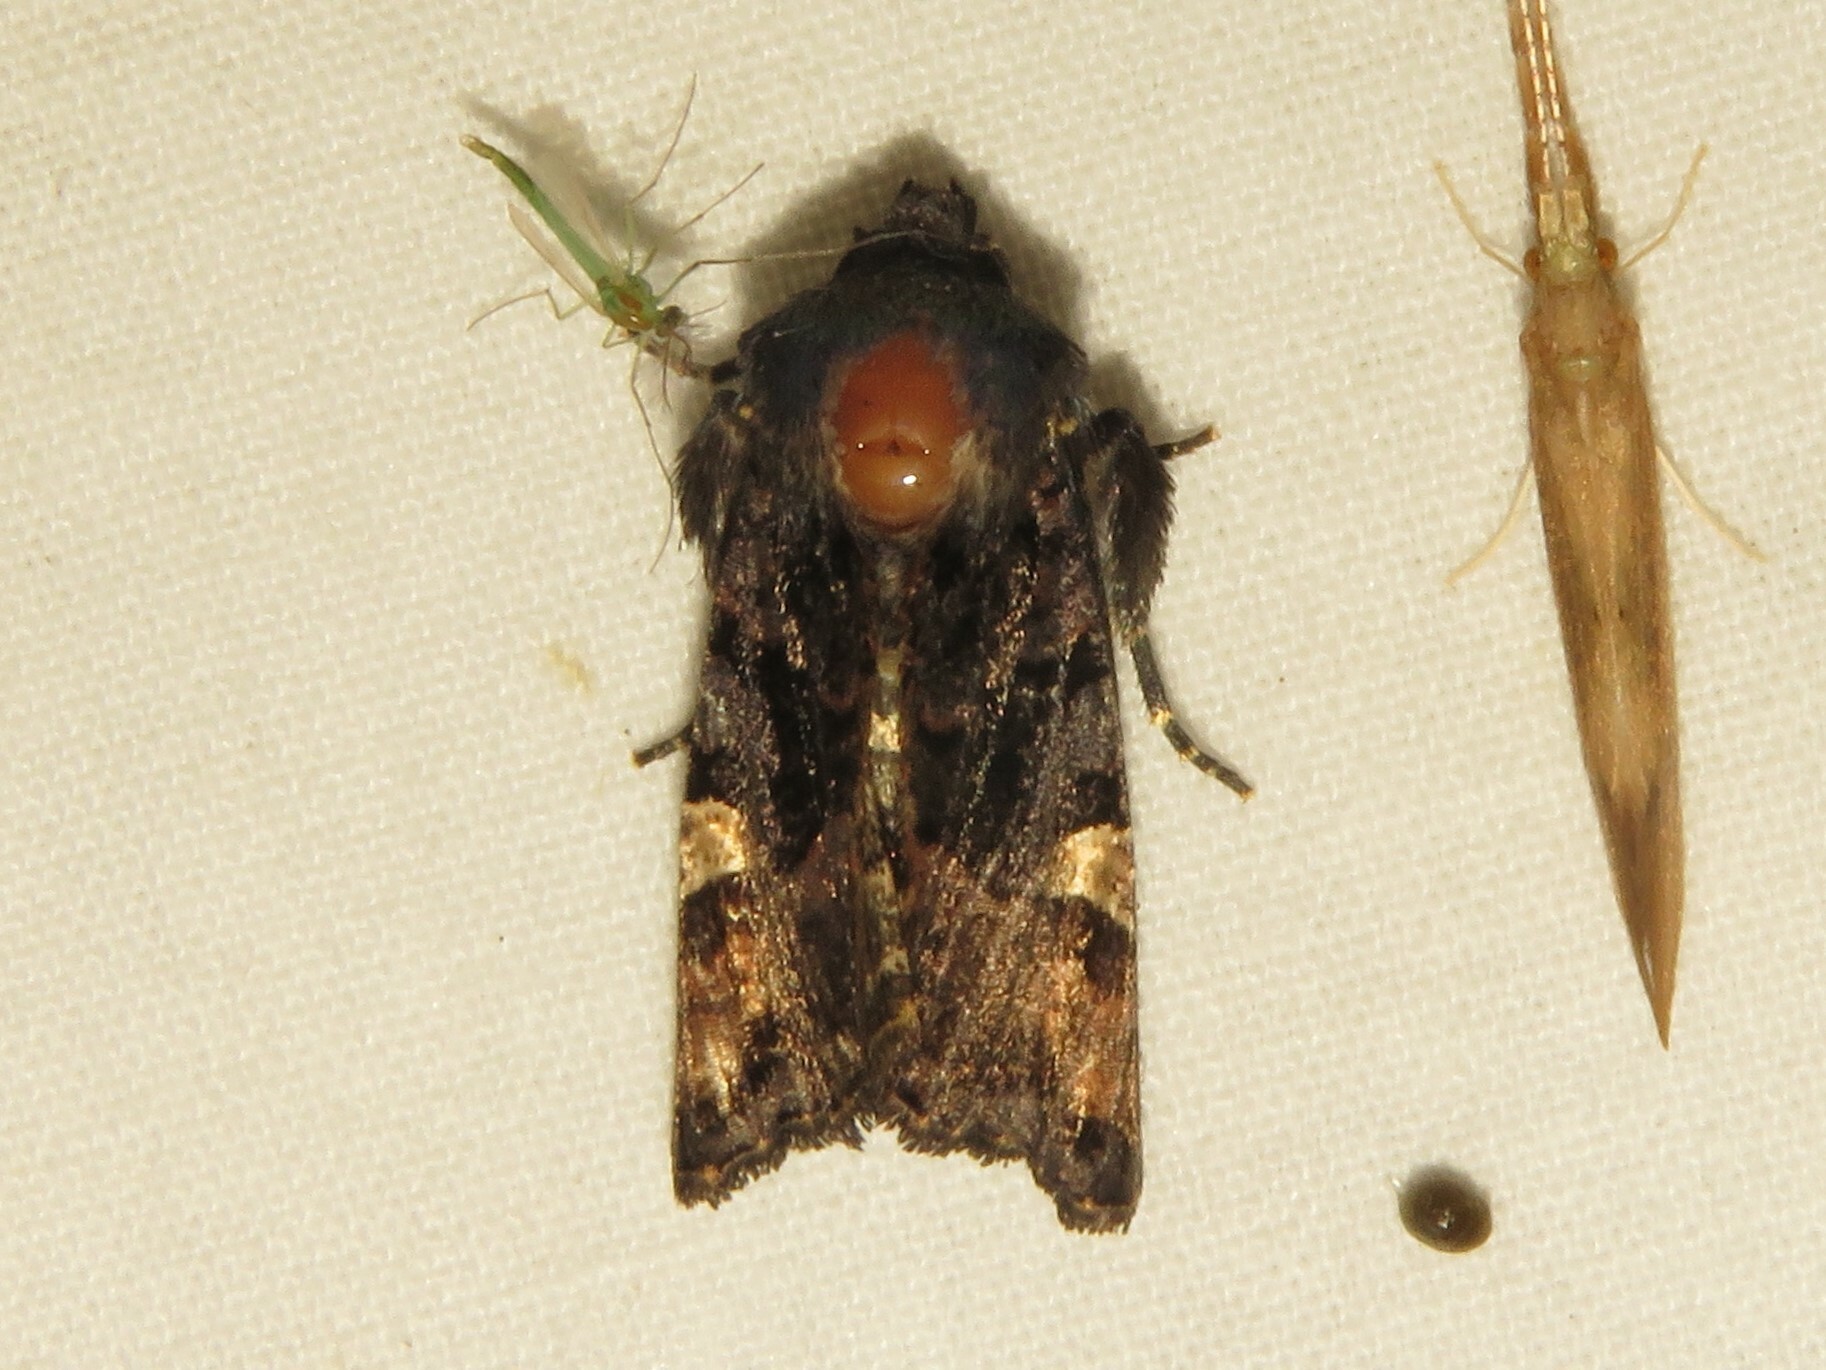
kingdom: Animalia
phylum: Arthropoda
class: Insecta
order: Lepidoptera
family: Noctuidae
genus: Euplexia
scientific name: Euplexia benesimilis
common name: American angle shades
